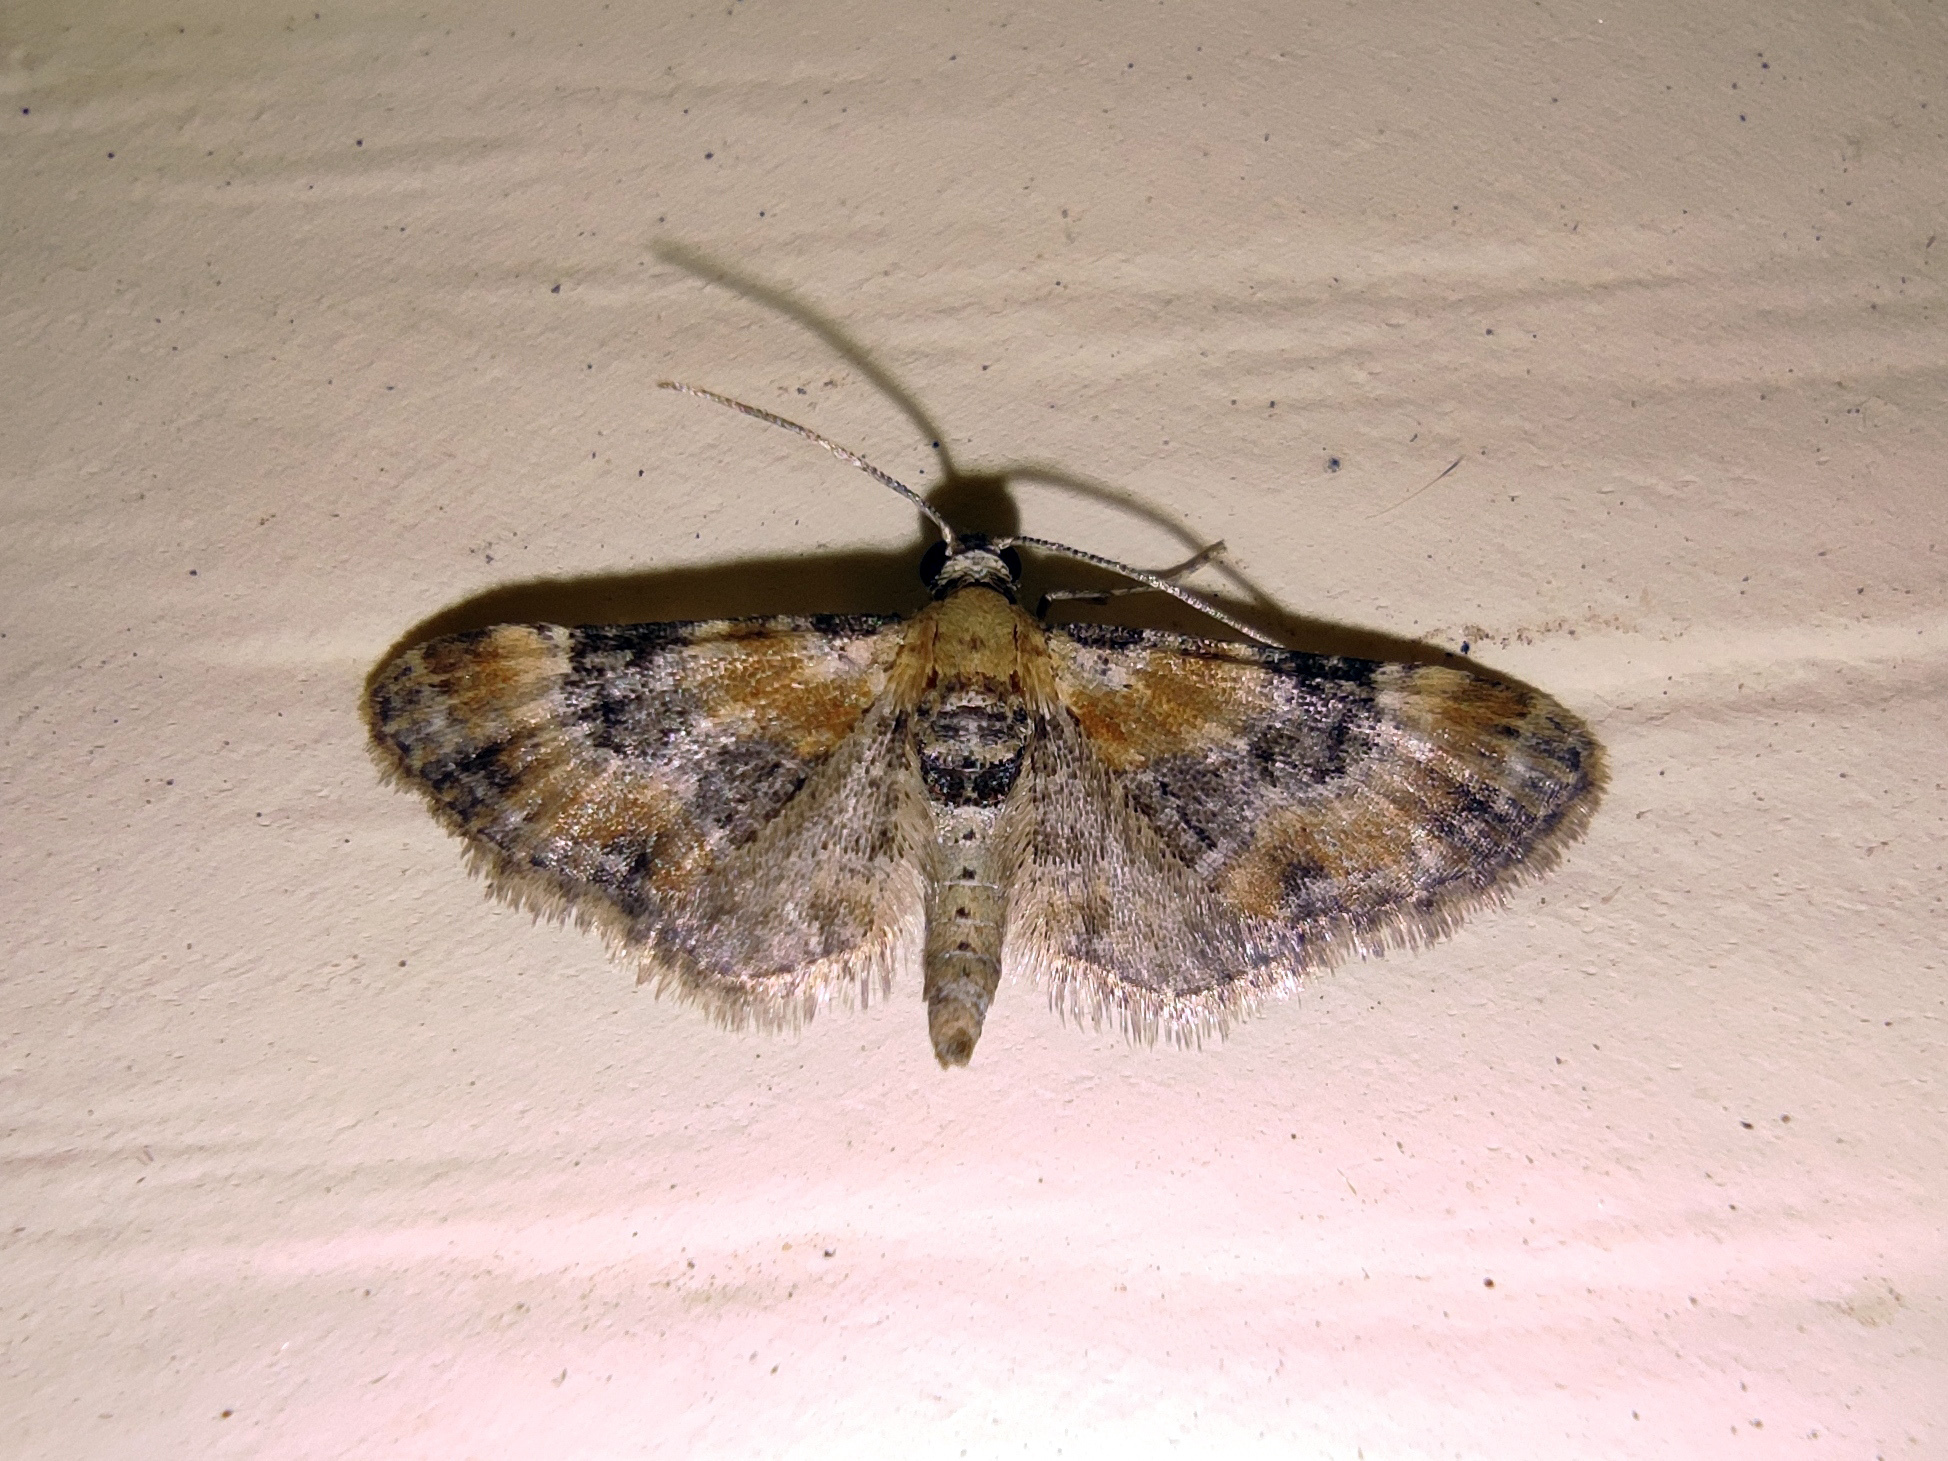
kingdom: Animalia
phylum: Arthropoda
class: Insecta
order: Lepidoptera
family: Geometridae
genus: Eupithecia
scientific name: Eupithecia linariata
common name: Toadflax pug
